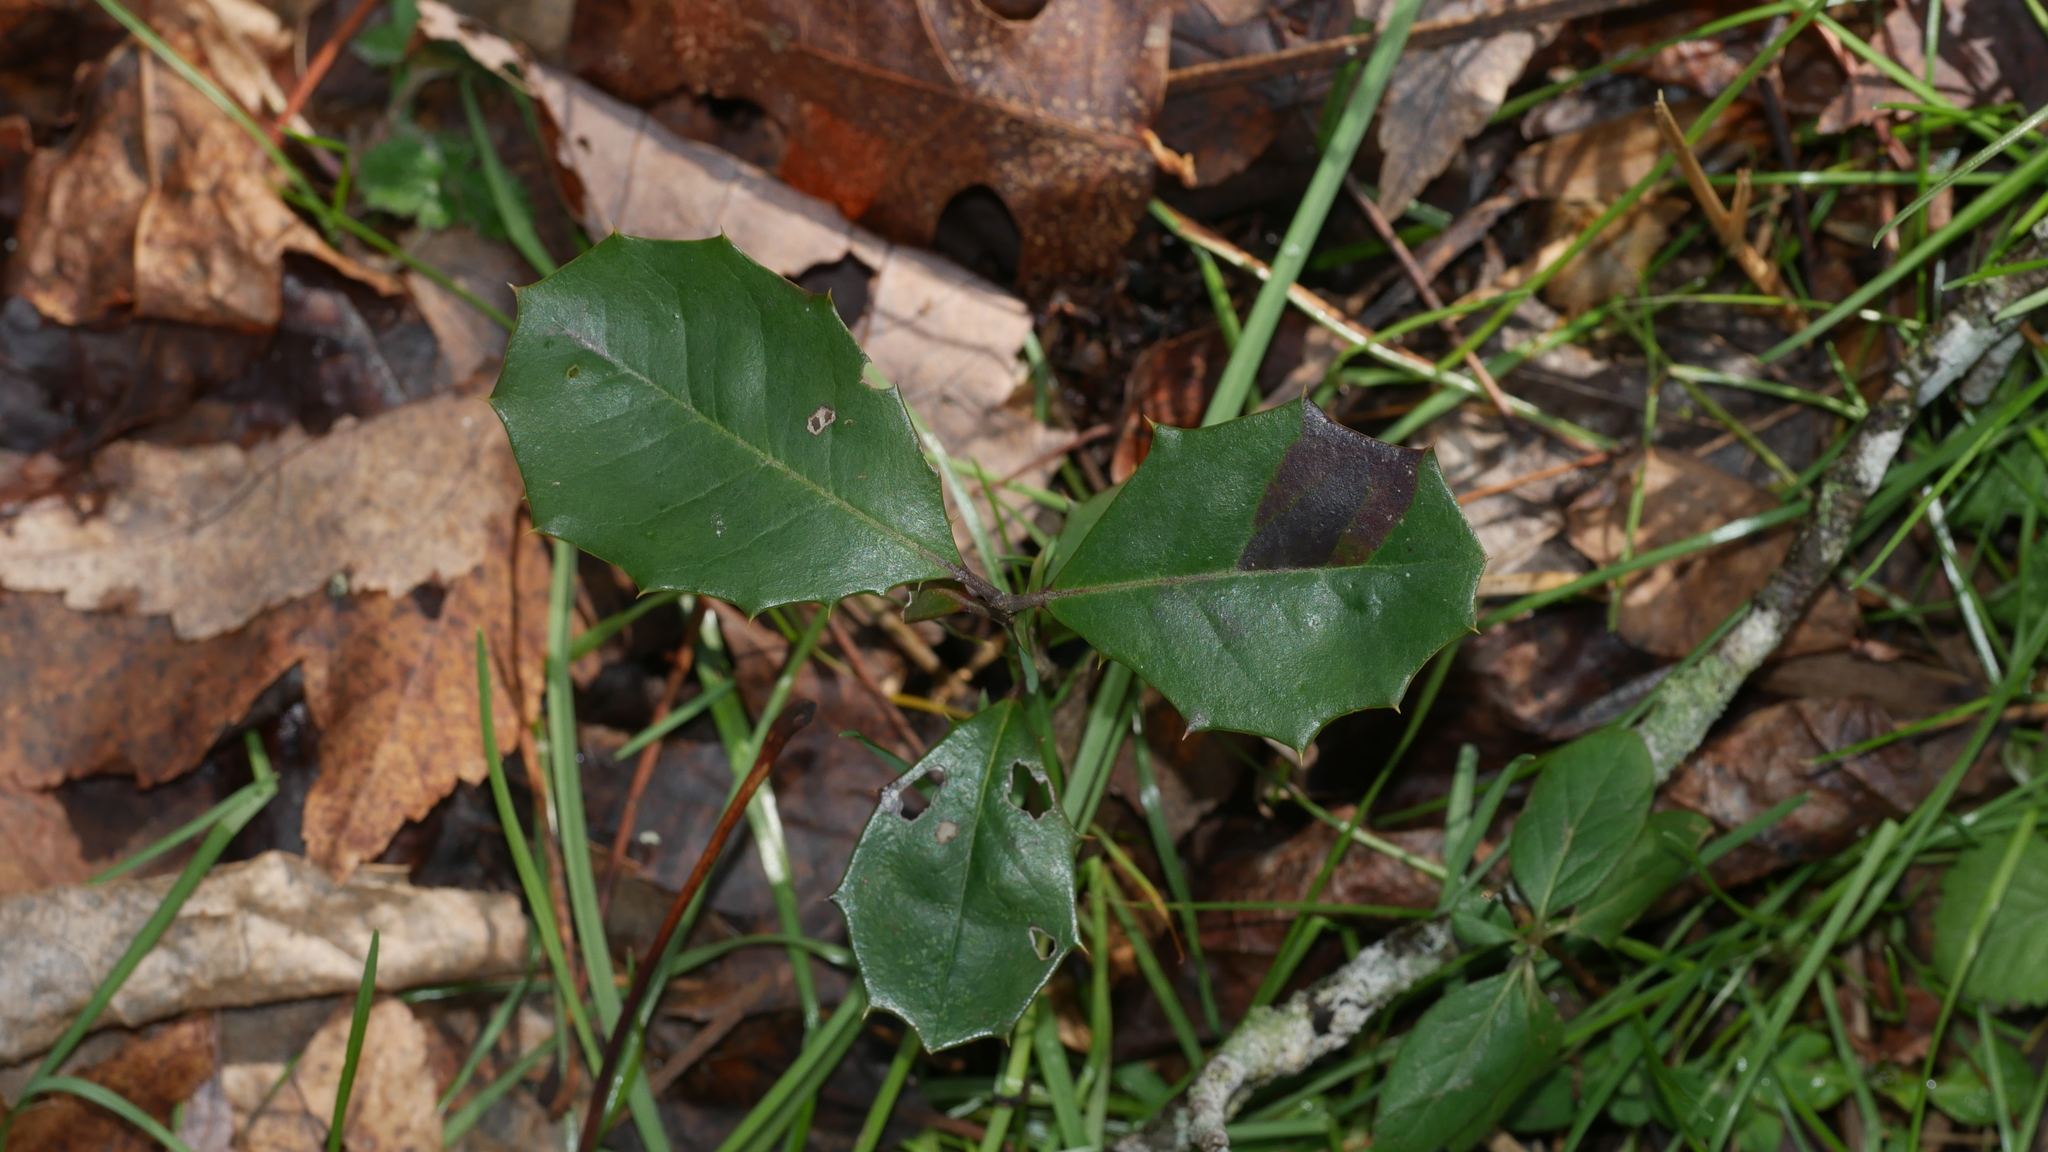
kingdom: Plantae
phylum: Tracheophyta
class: Magnoliopsida
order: Aquifoliales
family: Aquifoliaceae
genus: Ilex
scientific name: Ilex opaca
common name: American holly
